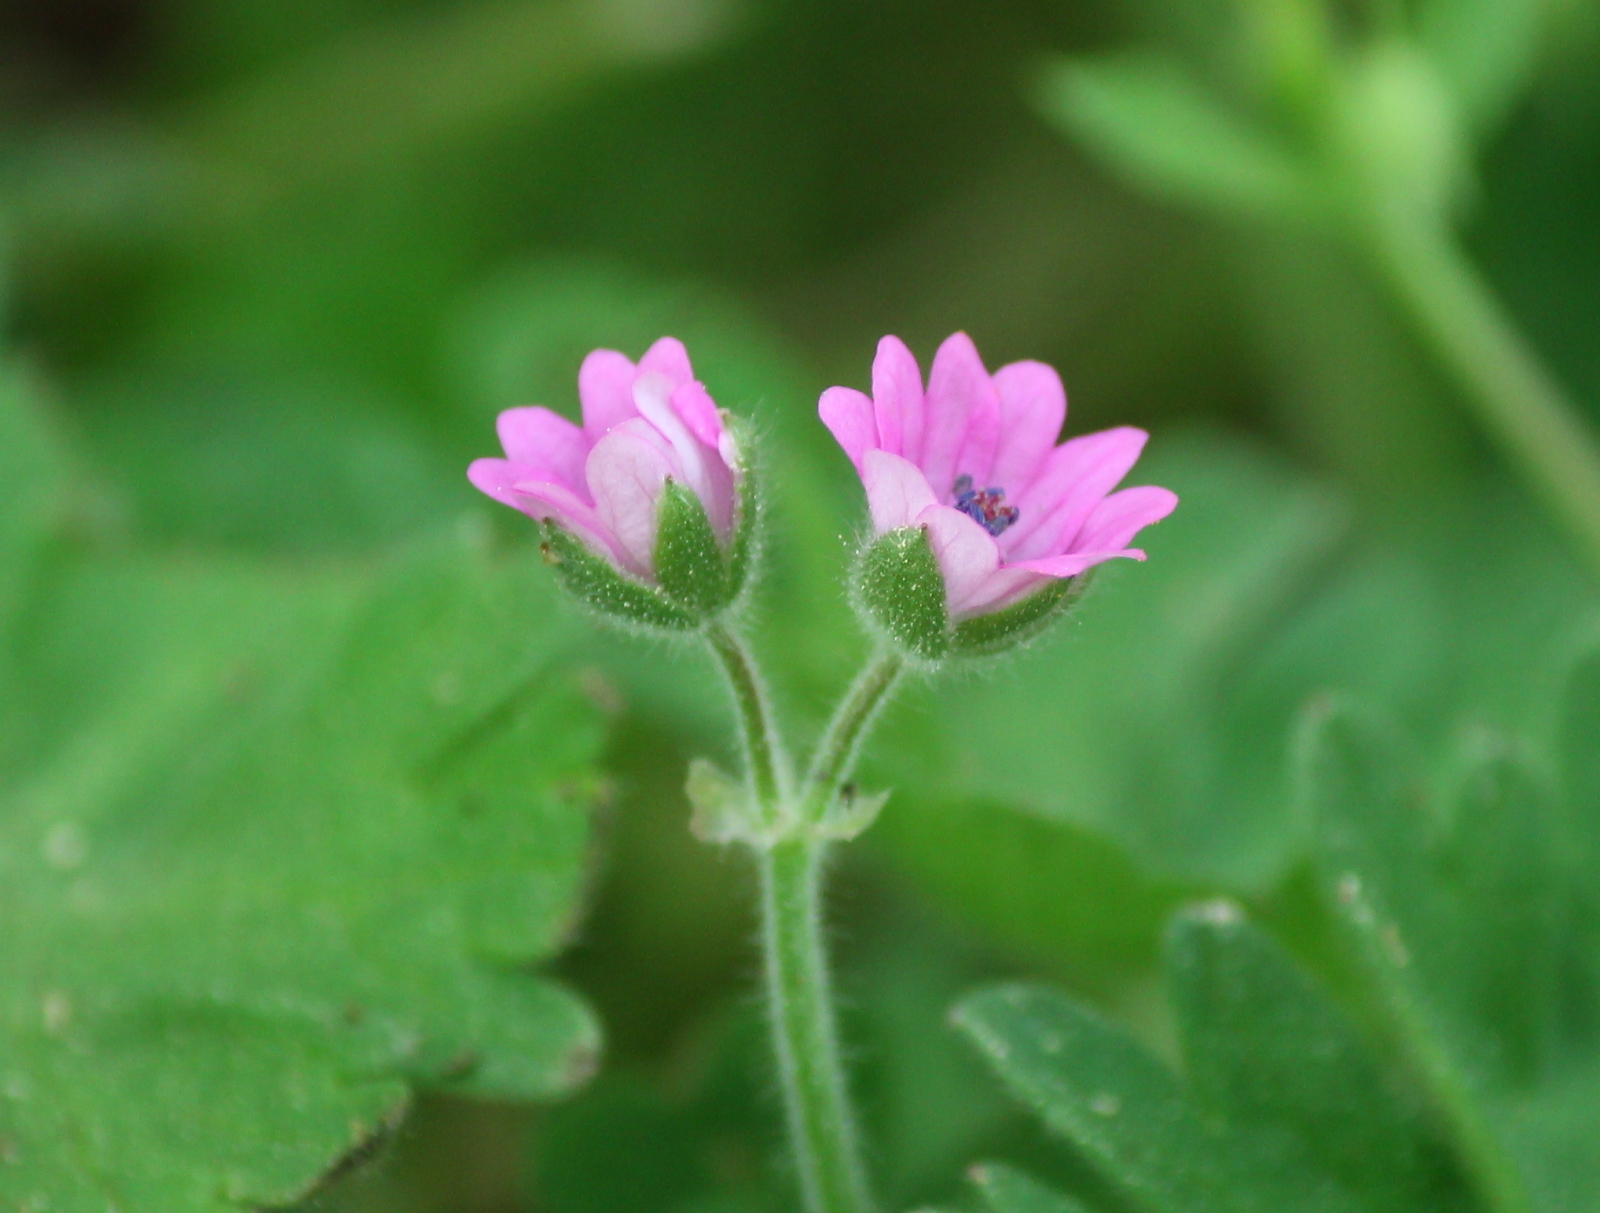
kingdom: Plantae
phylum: Tracheophyta
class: Magnoliopsida
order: Geraniales
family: Geraniaceae
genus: Geranium
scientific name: Geranium molle
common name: Dove's-foot crane's-bill
